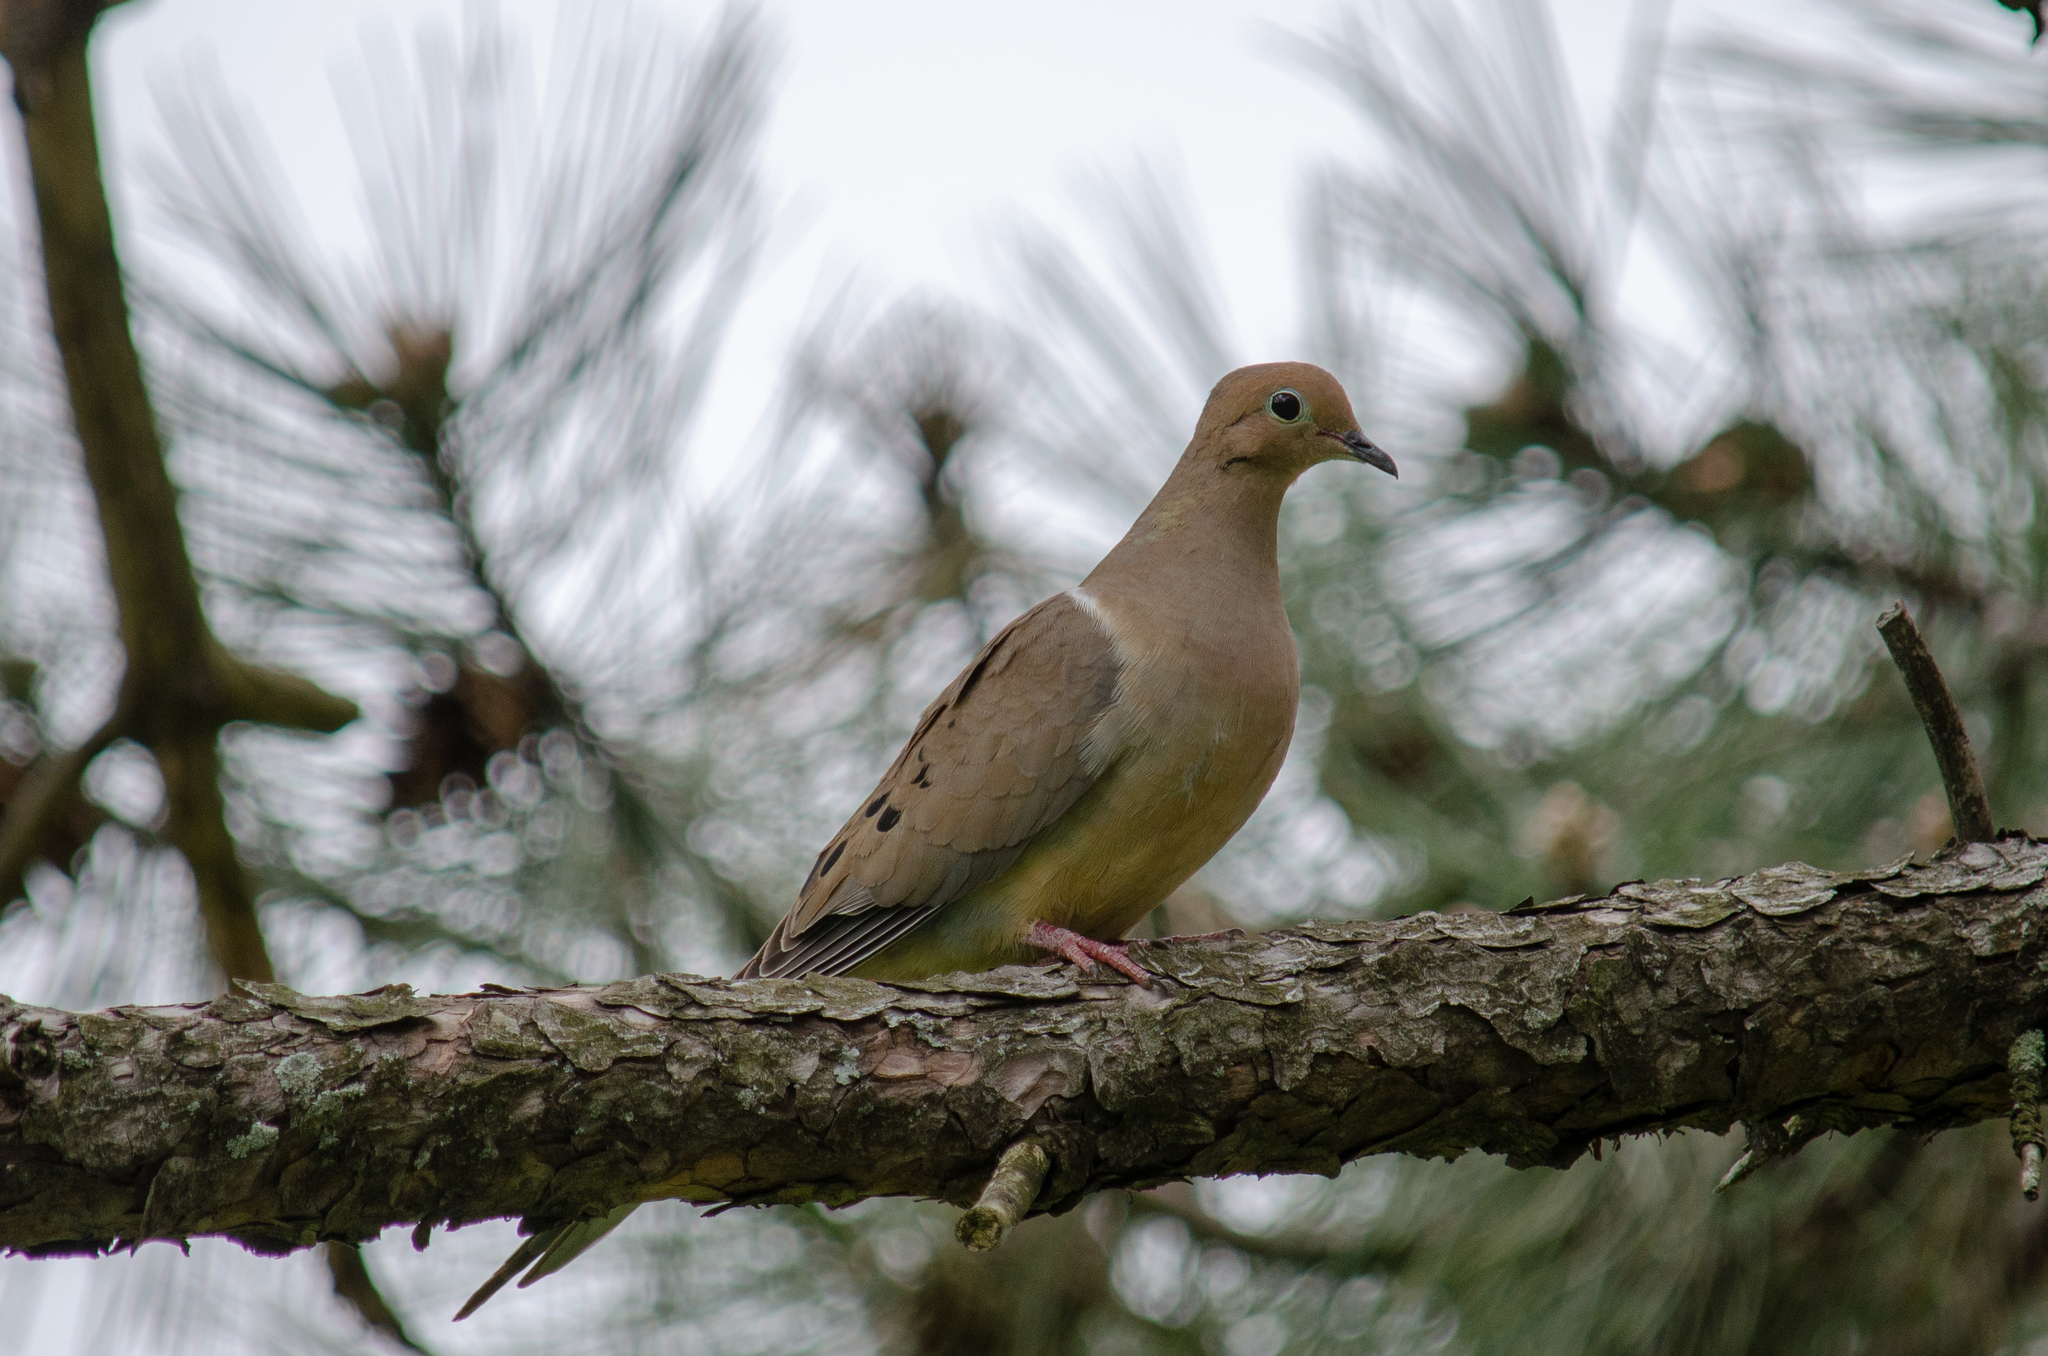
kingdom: Animalia
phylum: Chordata
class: Aves
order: Columbiformes
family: Columbidae
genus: Zenaida
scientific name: Zenaida macroura
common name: Mourning dove
